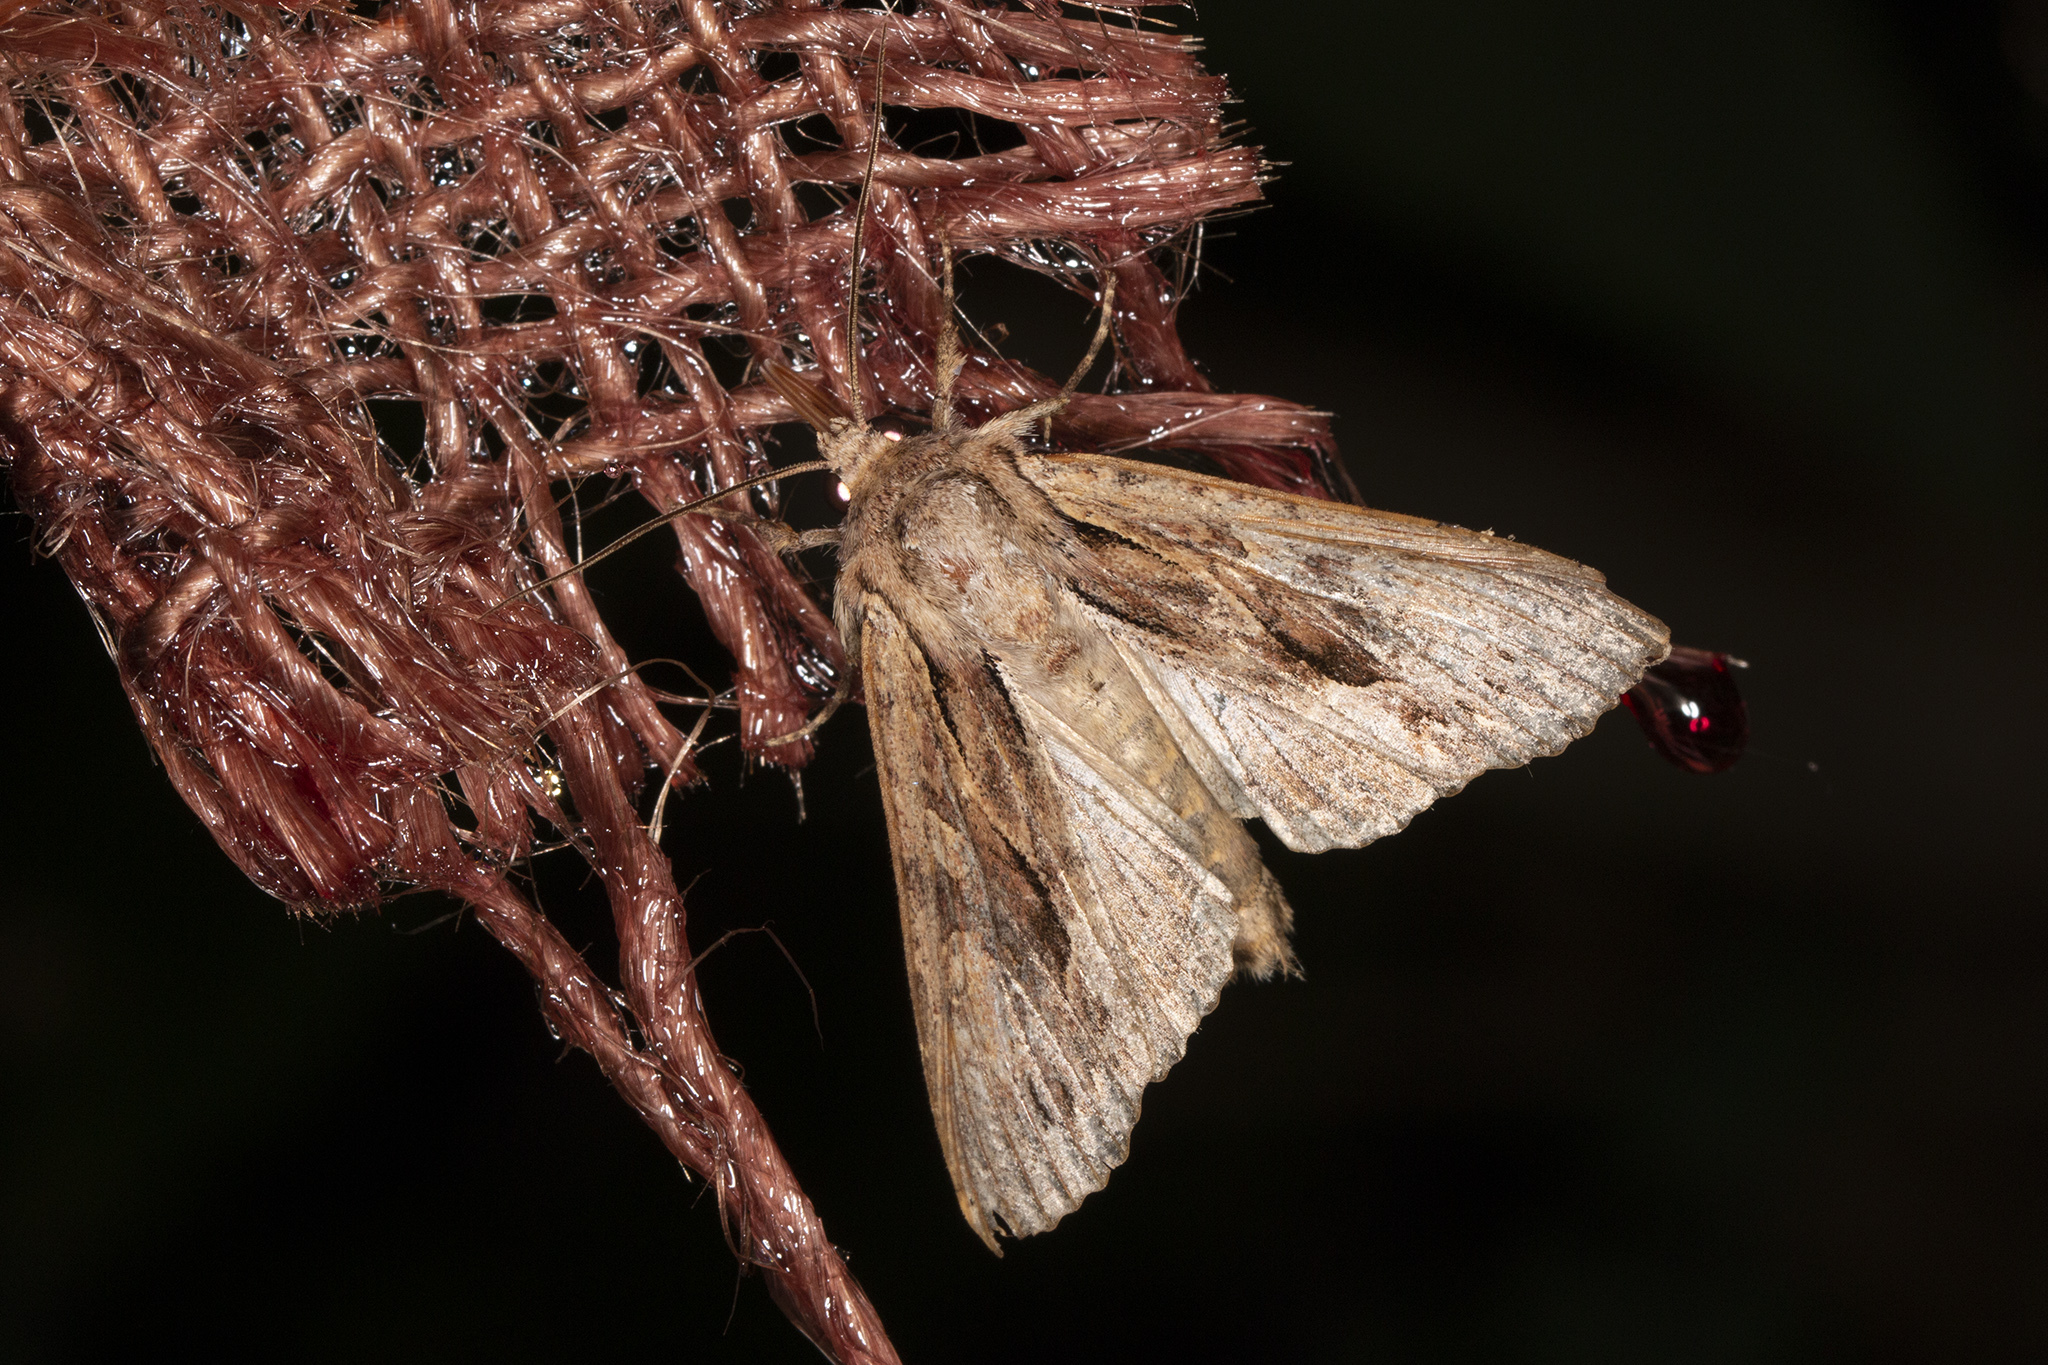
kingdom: Animalia
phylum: Arthropoda
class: Insecta
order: Lepidoptera
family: Noctuidae
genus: Apamea
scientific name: Apamea monoglypha
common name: Dark arches
